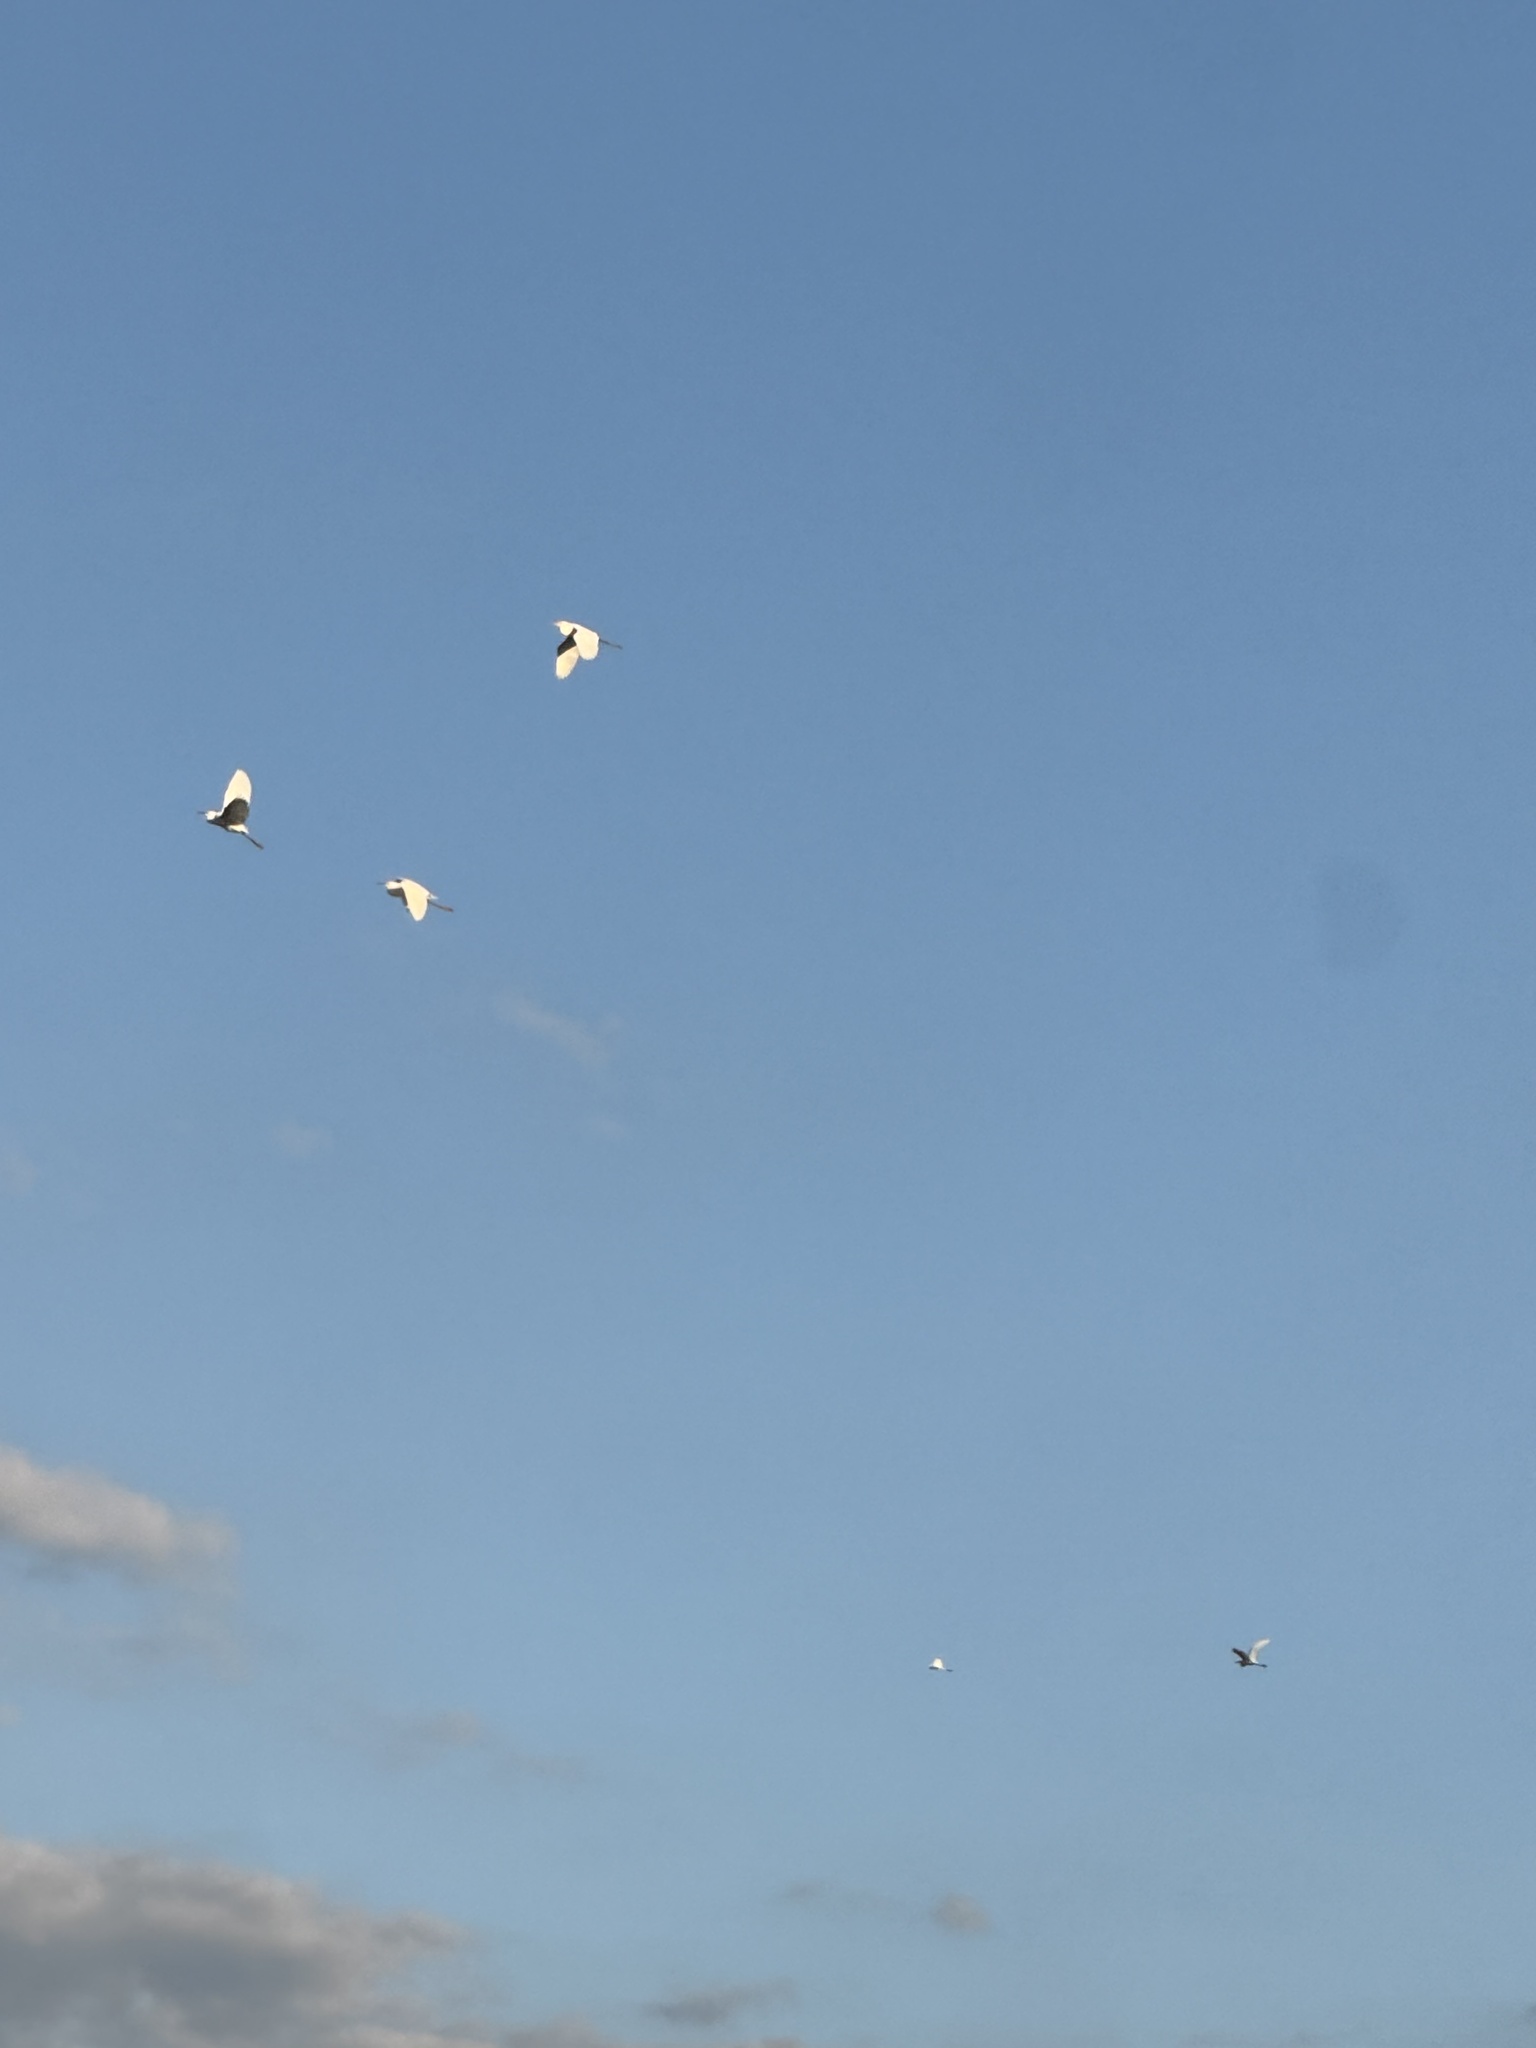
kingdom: Animalia
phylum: Chordata
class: Aves
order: Pelecaniformes
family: Ardeidae
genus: Ardea
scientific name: Ardea alba
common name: Great egret
